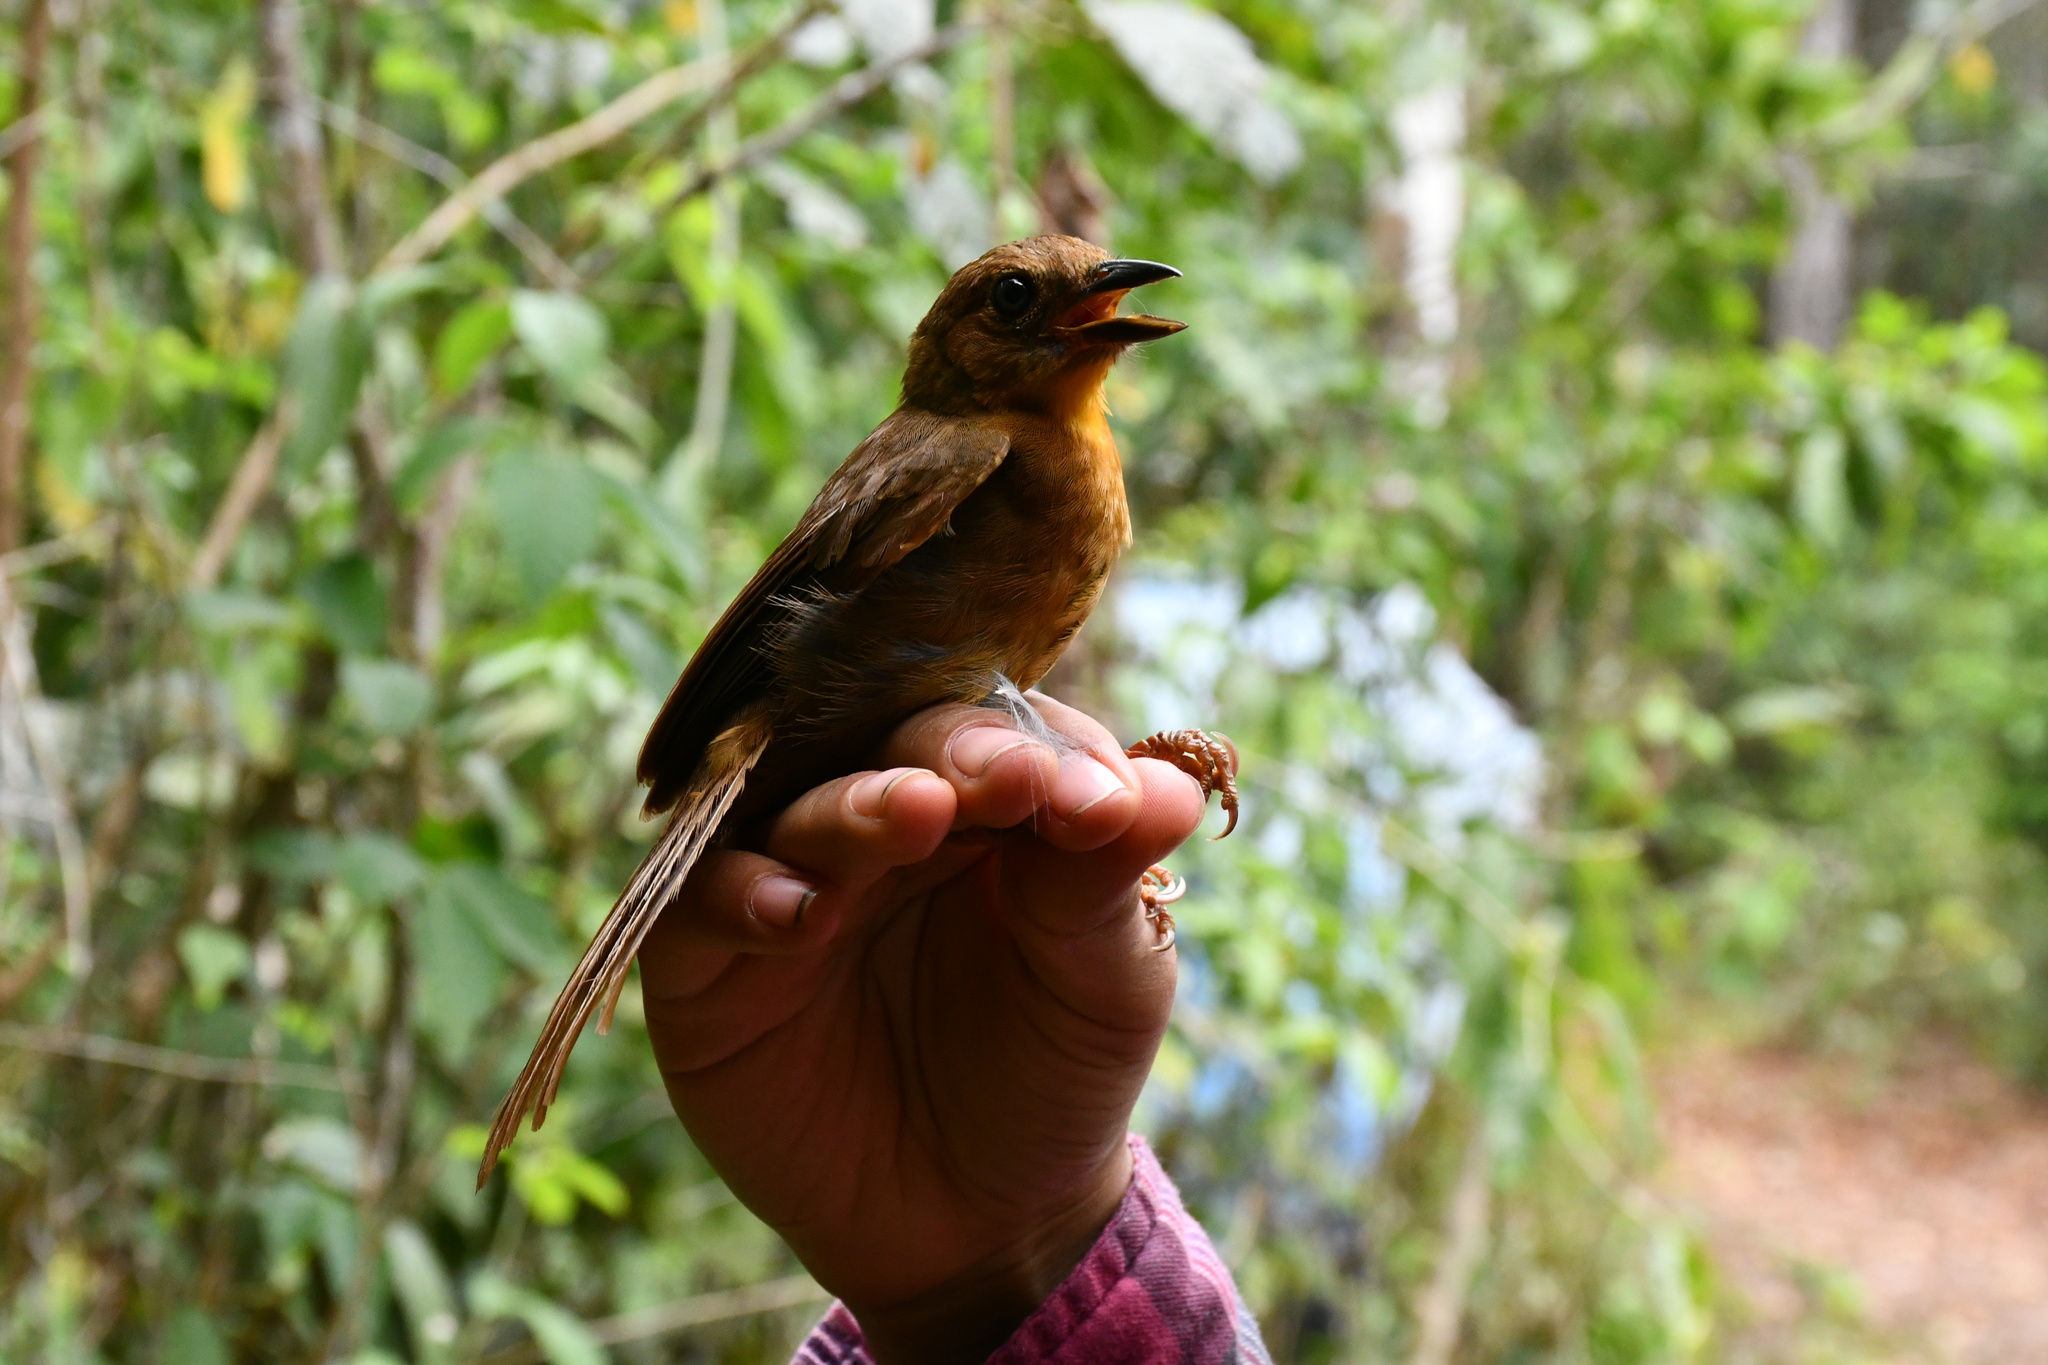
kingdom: Animalia
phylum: Chordata
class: Aves
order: Passeriformes
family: Cardinalidae
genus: Habia
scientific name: Habia fuscicauda
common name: Red-throated ant-tanager
